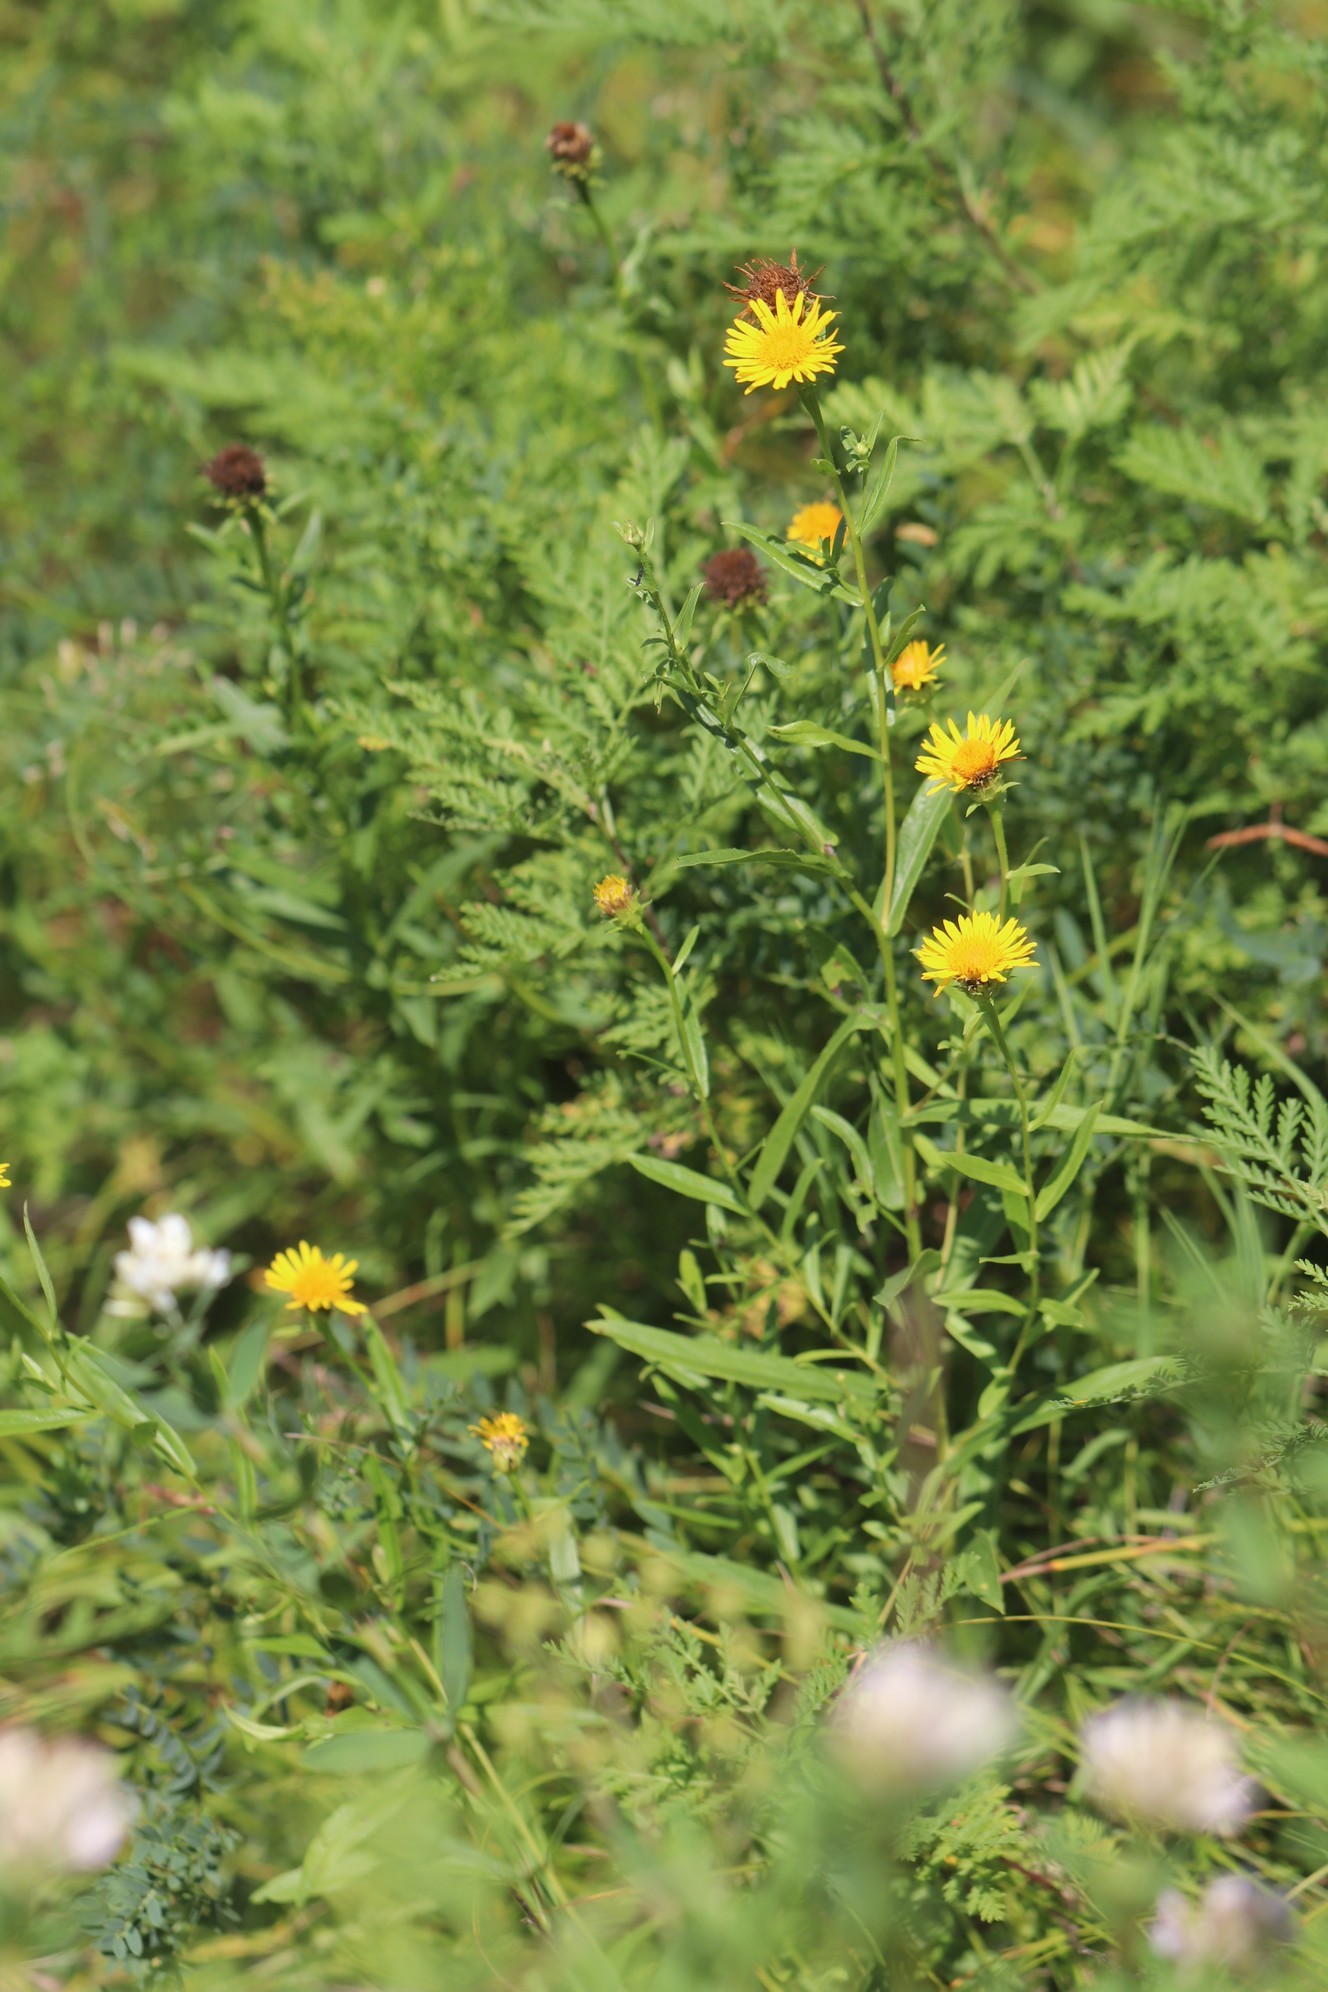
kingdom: Plantae
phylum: Tracheophyta
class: Magnoliopsida
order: Asterales
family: Asteraceae
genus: Pentanema
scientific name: Pentanema salicinum
